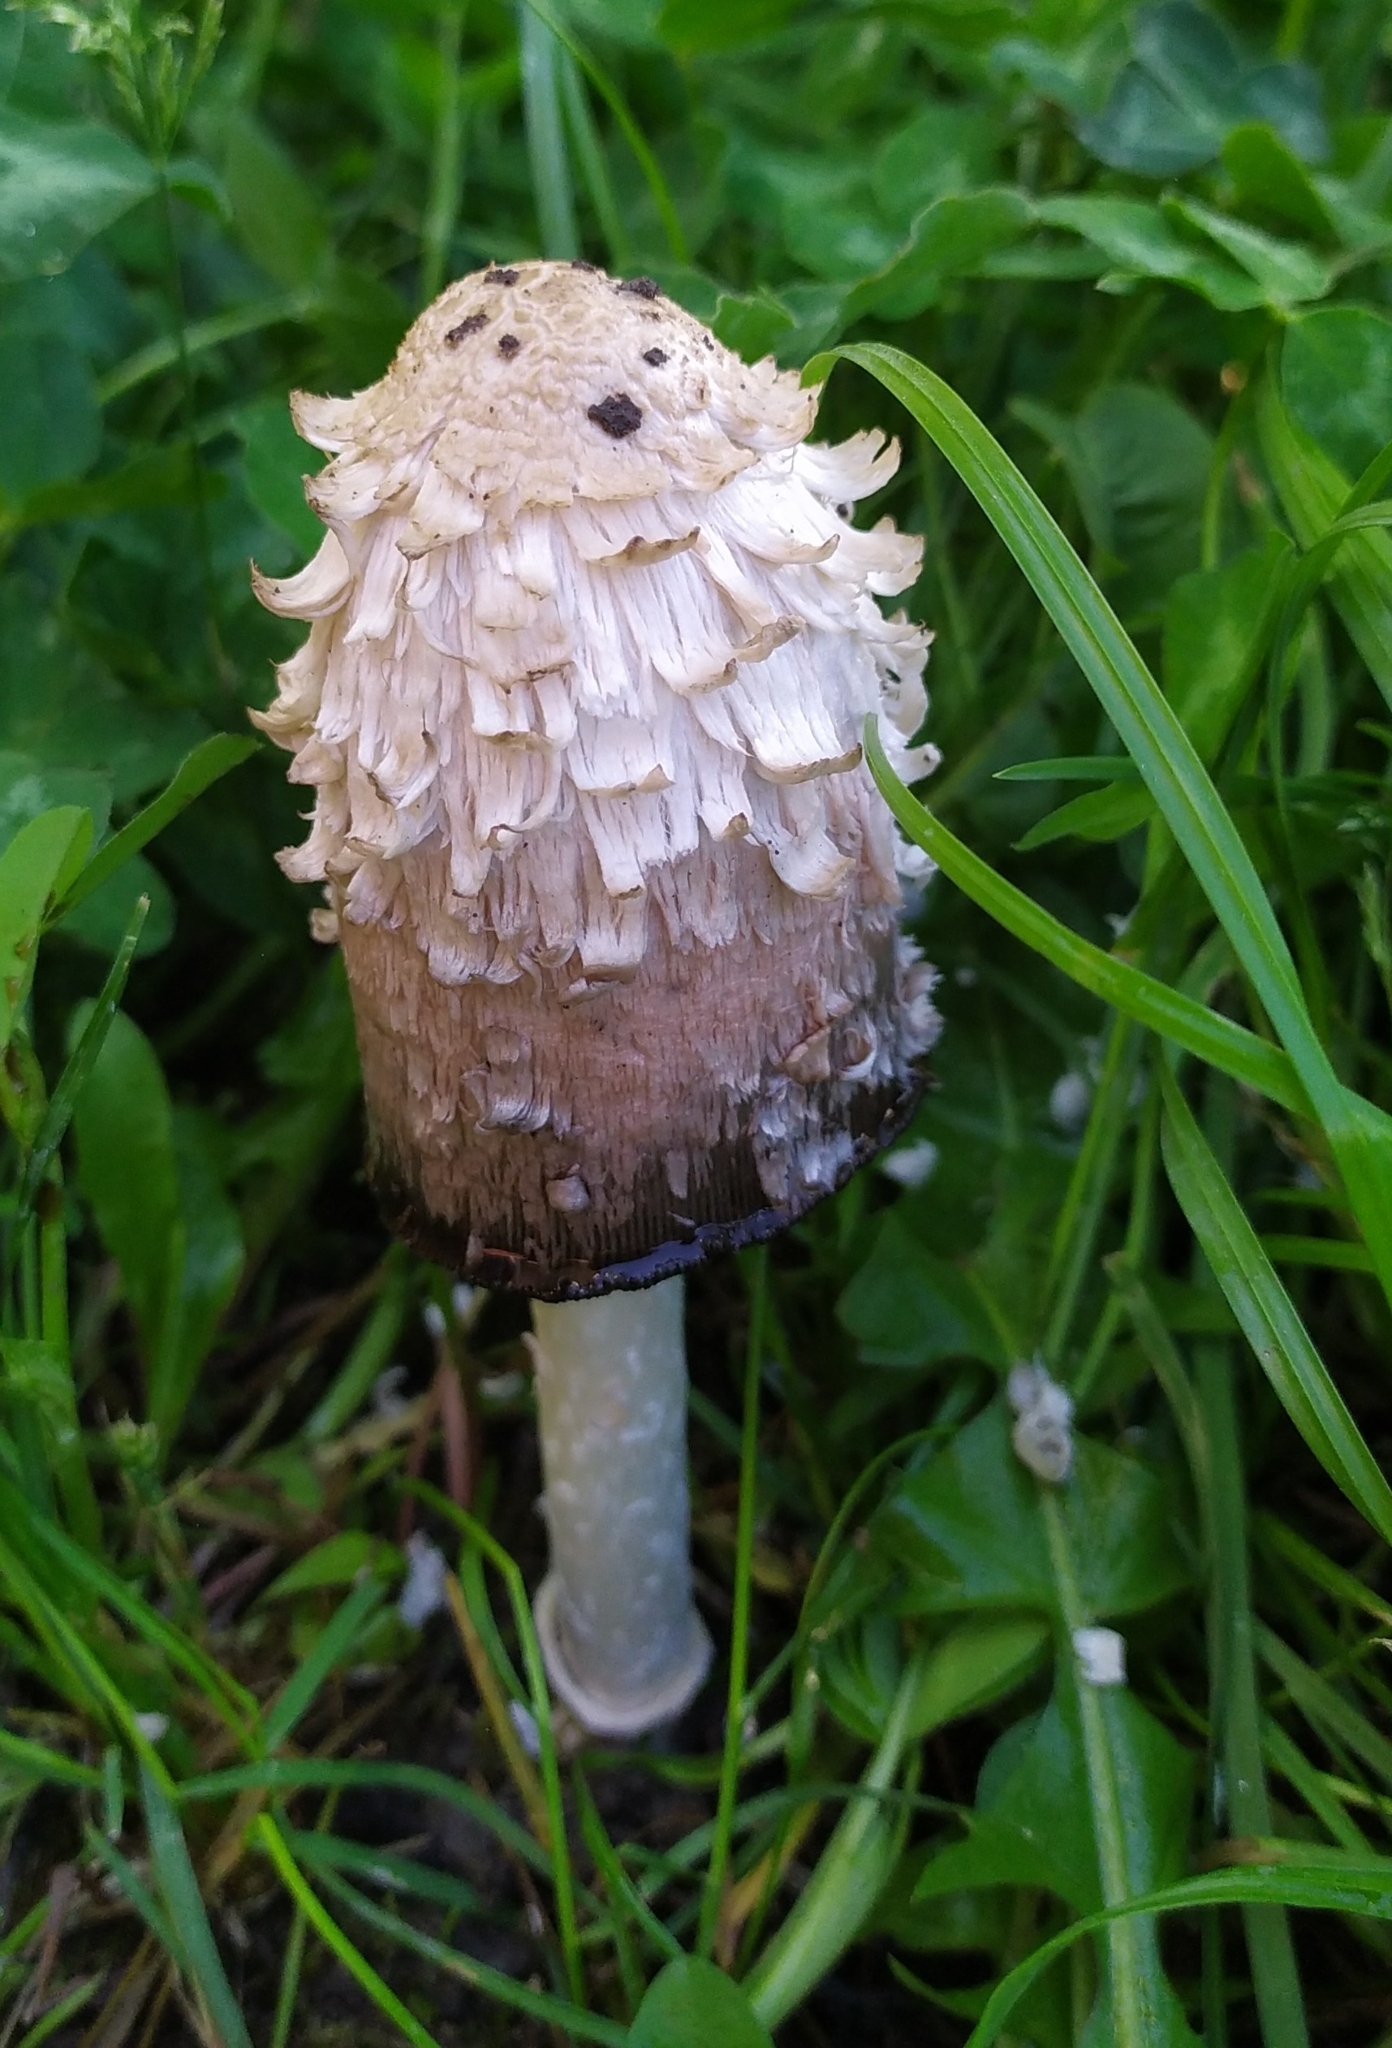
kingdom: Fungi
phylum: Basidiomycota
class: Agaricomycetes
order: Agaricales
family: Agaricaceae
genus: Coprinus
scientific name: Coprinus comatus
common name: Lawyer's wig
